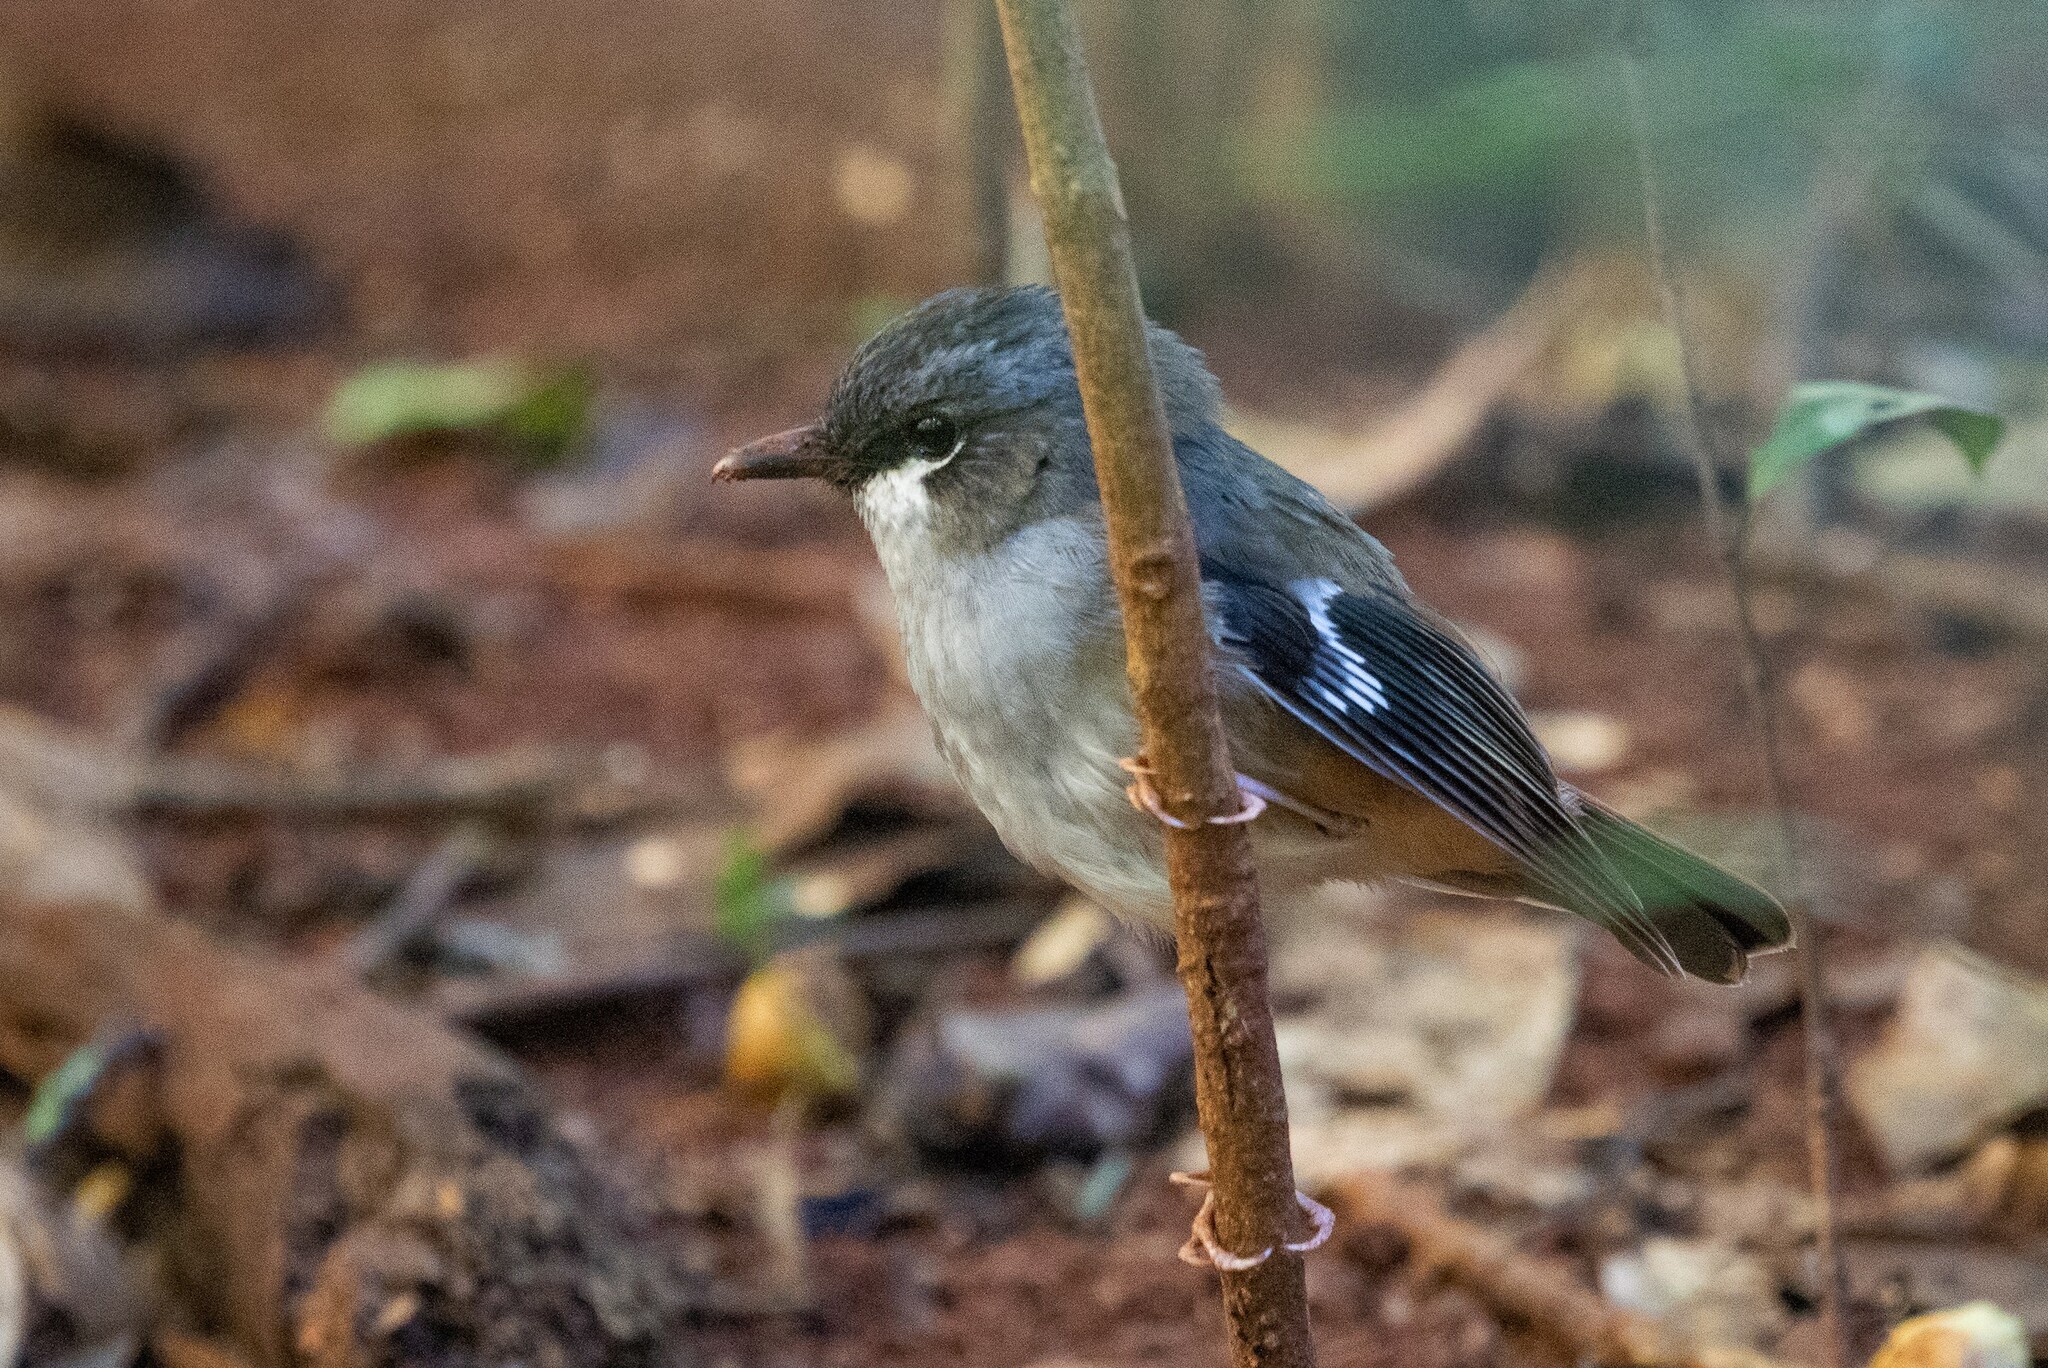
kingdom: Animalia
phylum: Chordata
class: Aves
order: Passeriformes
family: Petroicidae
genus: Heteromyias
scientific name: Heteromyias cinereifrons
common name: Grey-headed robin
